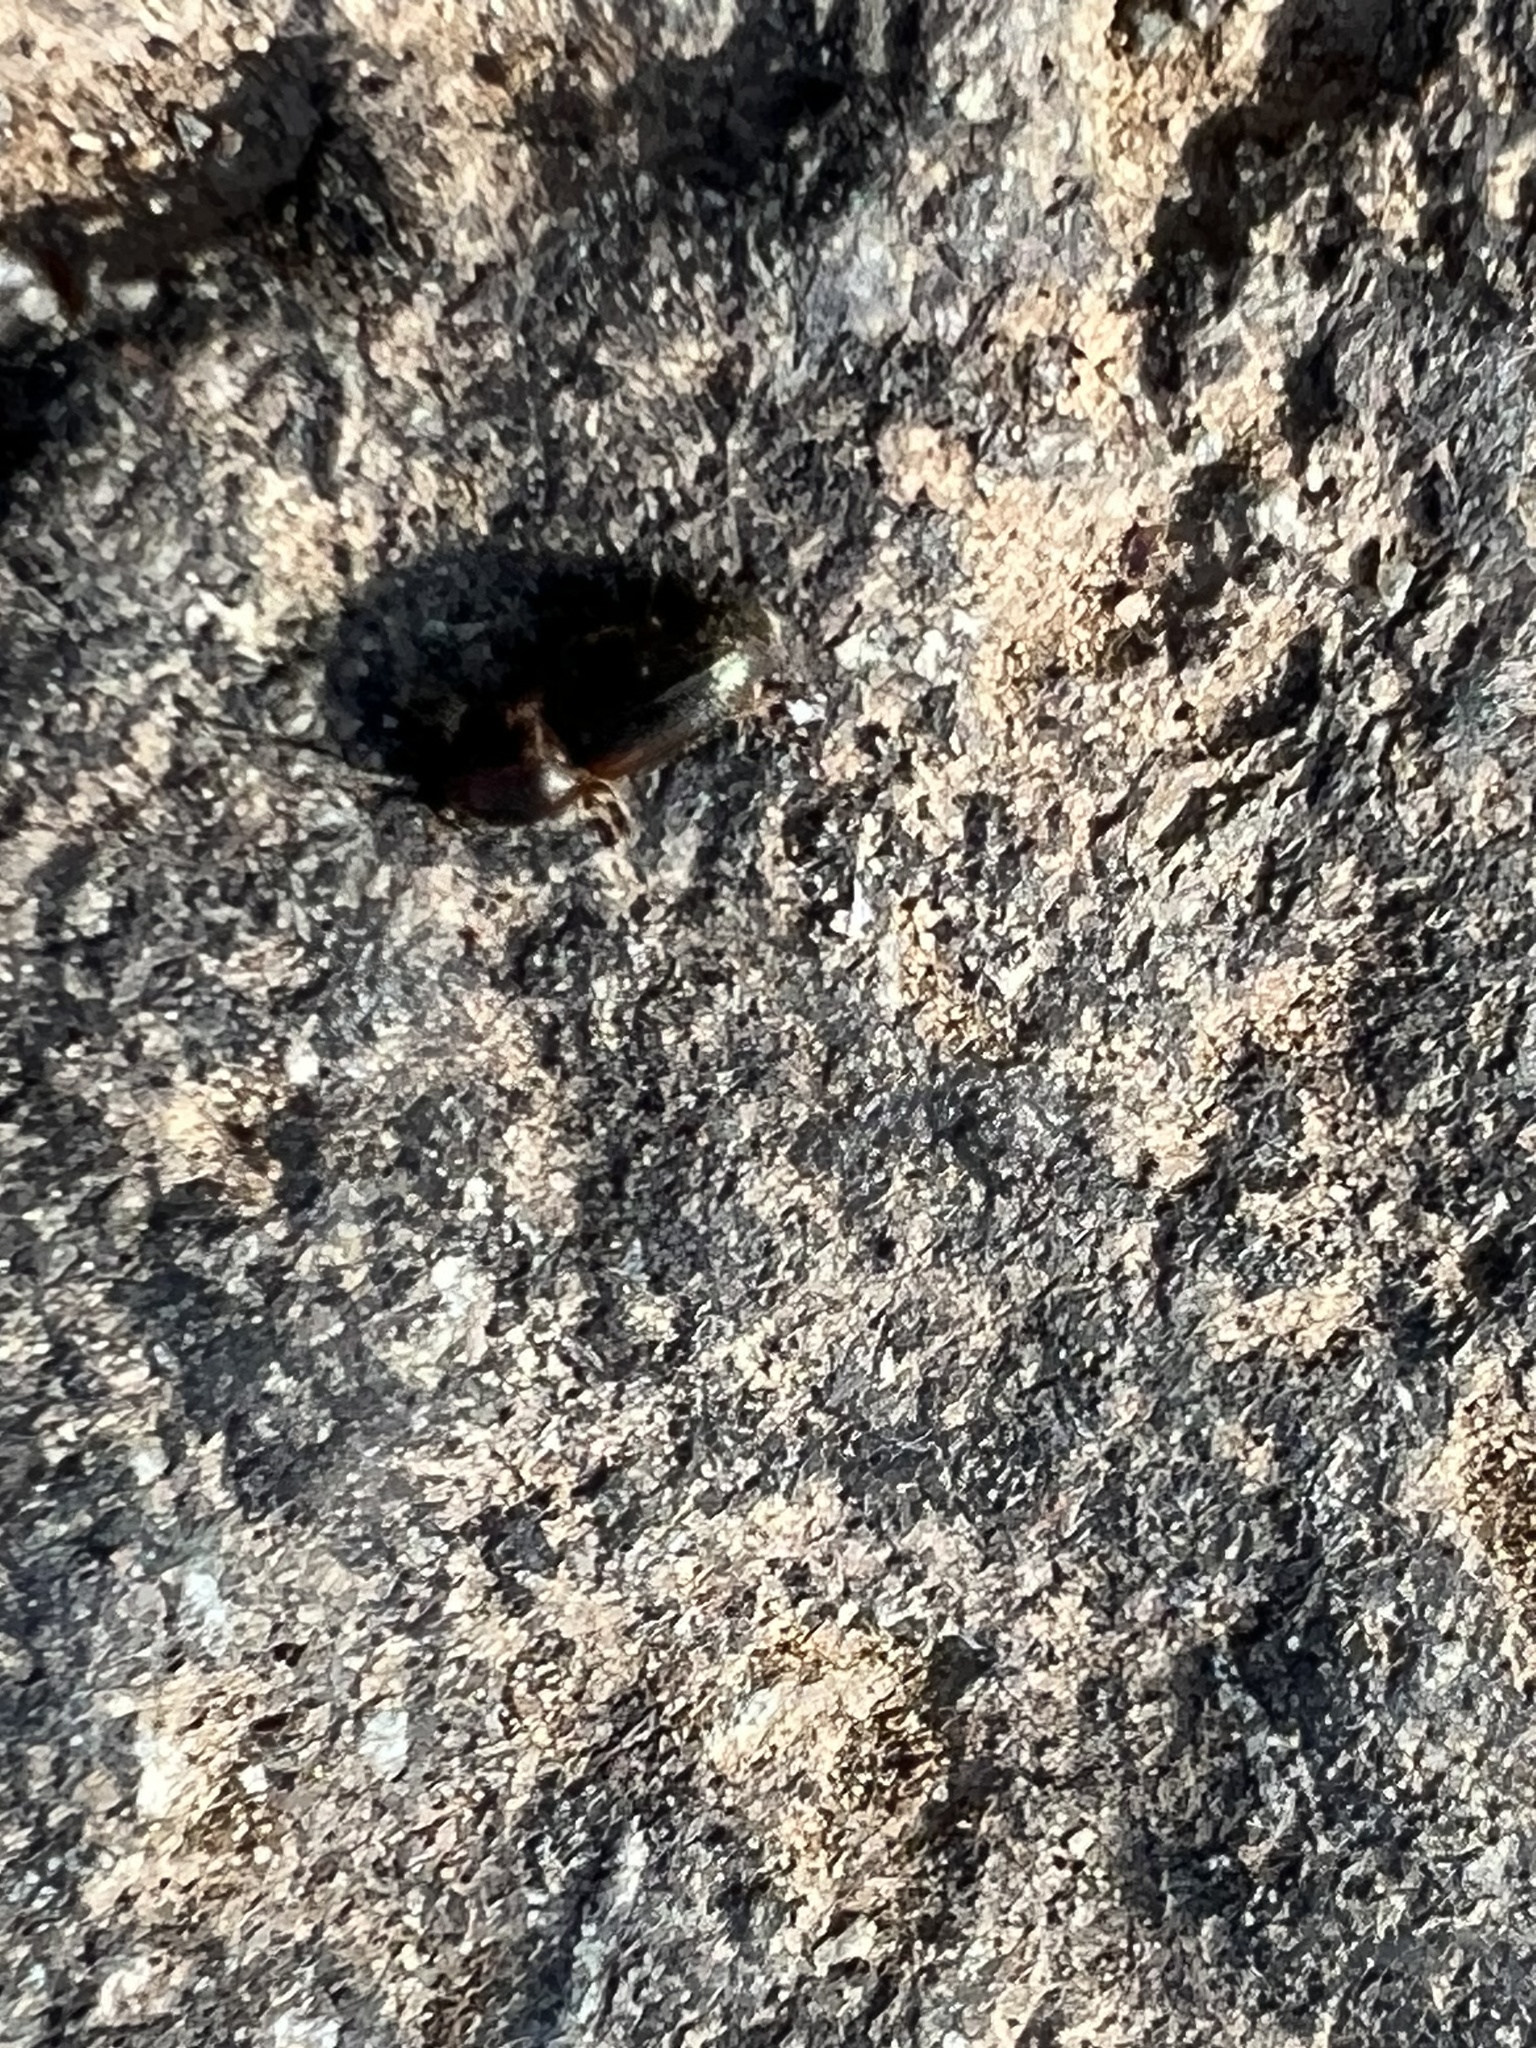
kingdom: Animalia
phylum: Arthropoda
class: Insecta
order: Coleoptera
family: Elateridae
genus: Monocrepidius
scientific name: Monocrepidius
